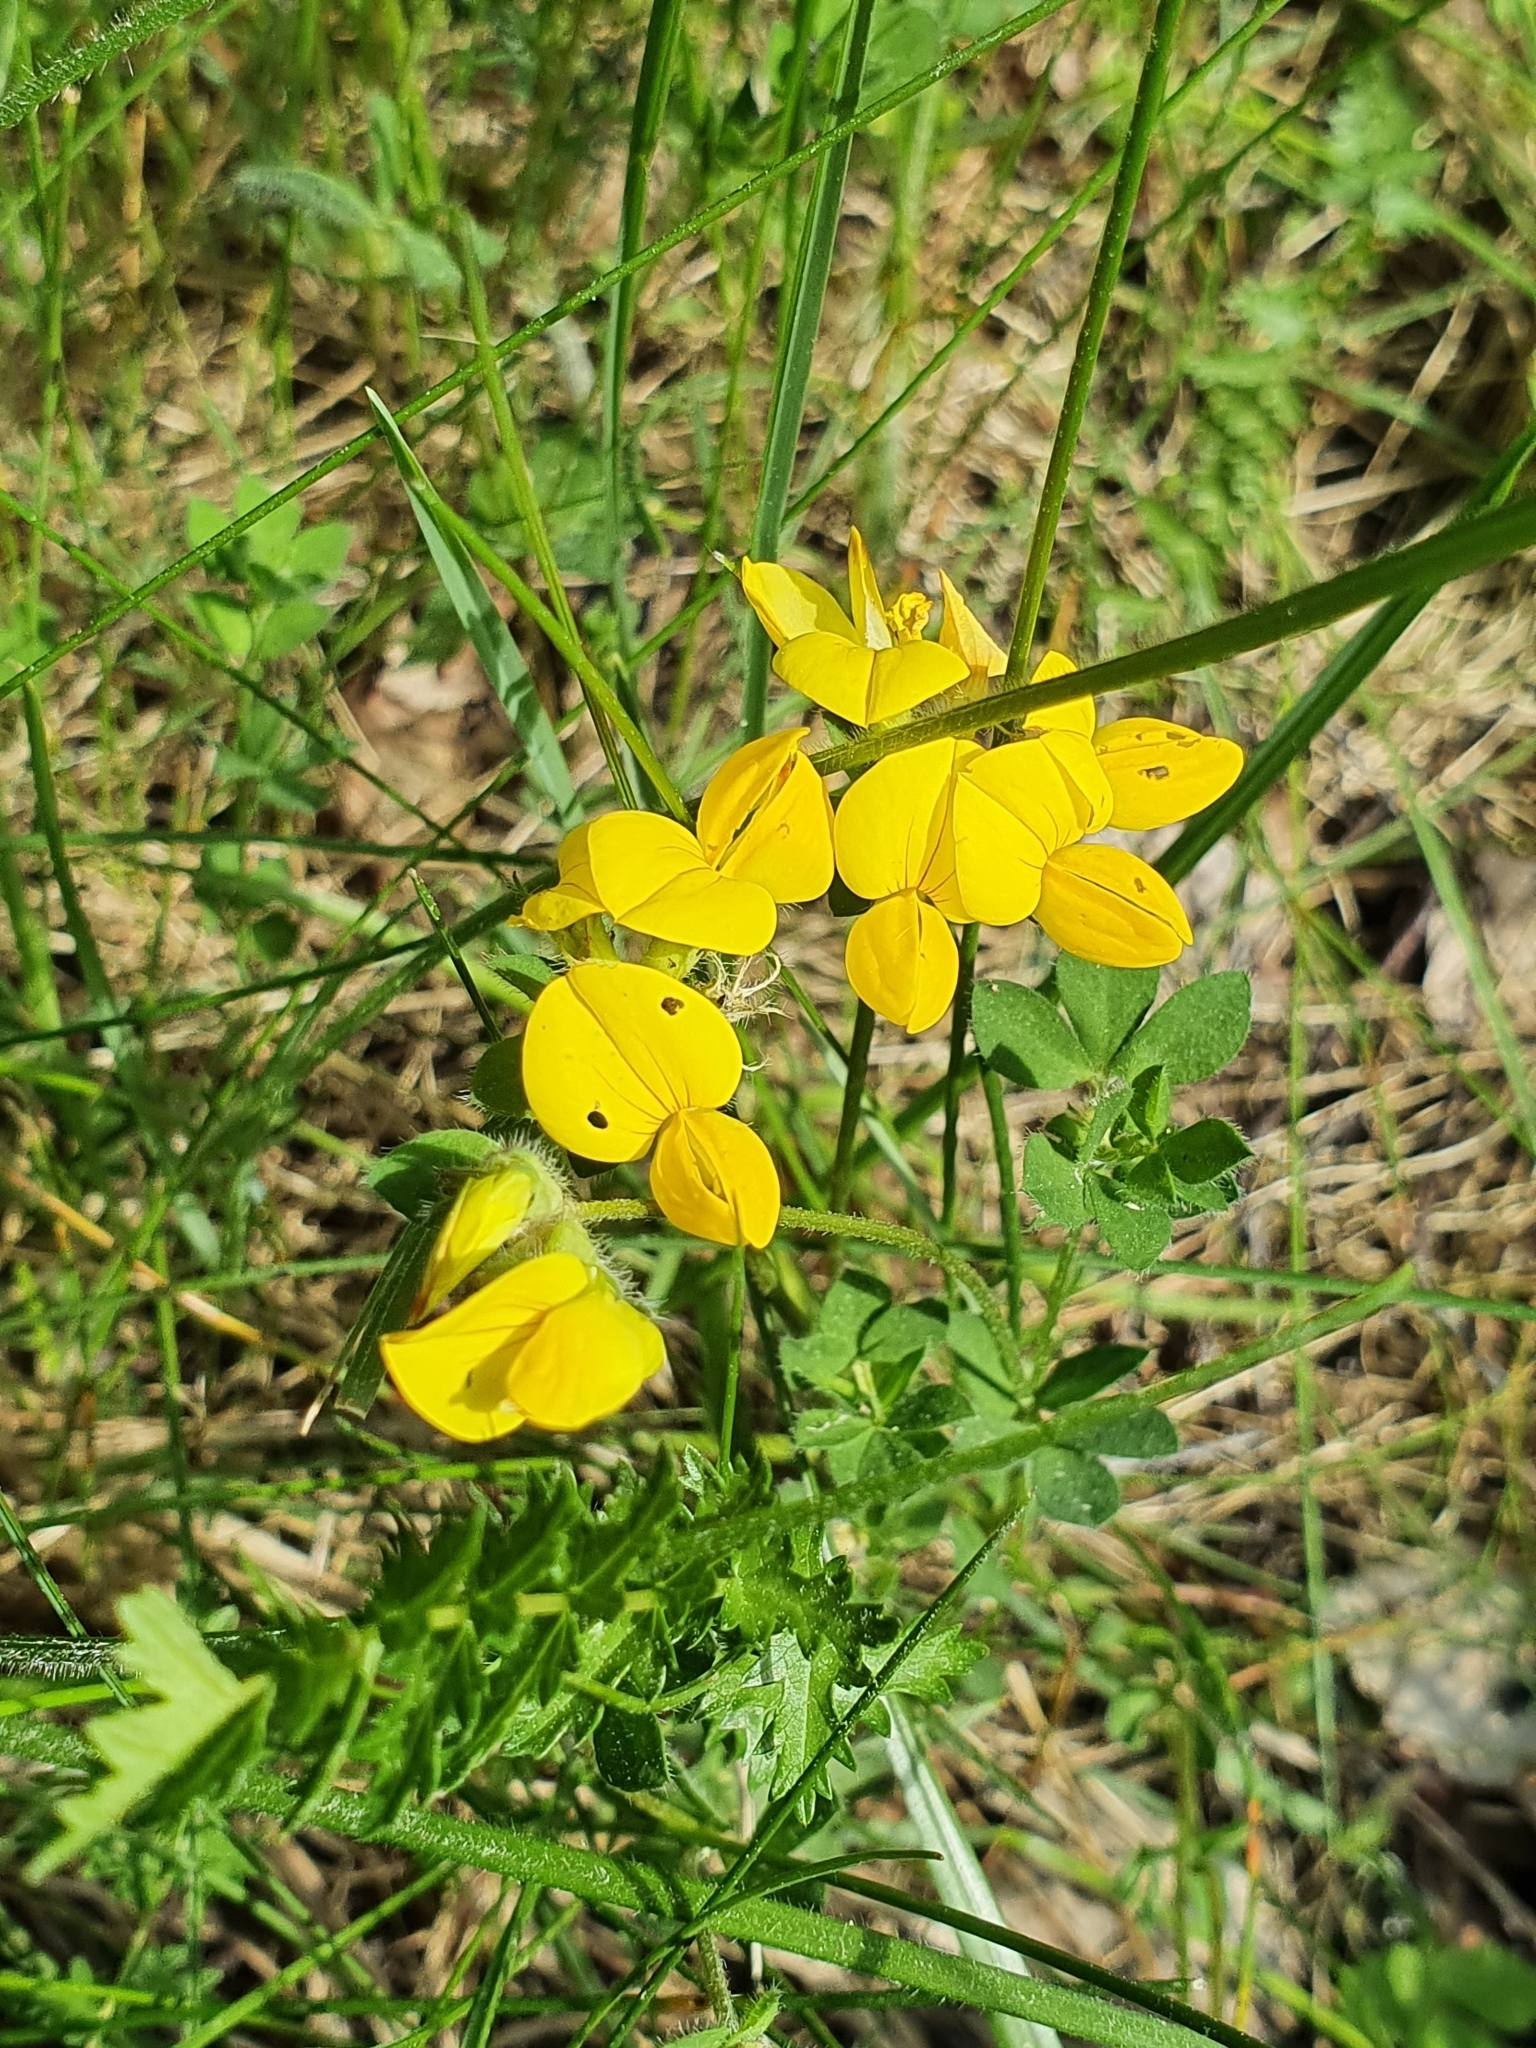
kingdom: Plantae
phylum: Tracheophyta
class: Magnoliopsida
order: Fabales
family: Fabaceae
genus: Lotus
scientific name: Lotus corniculatus
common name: Common bird's-foot-trefoil
